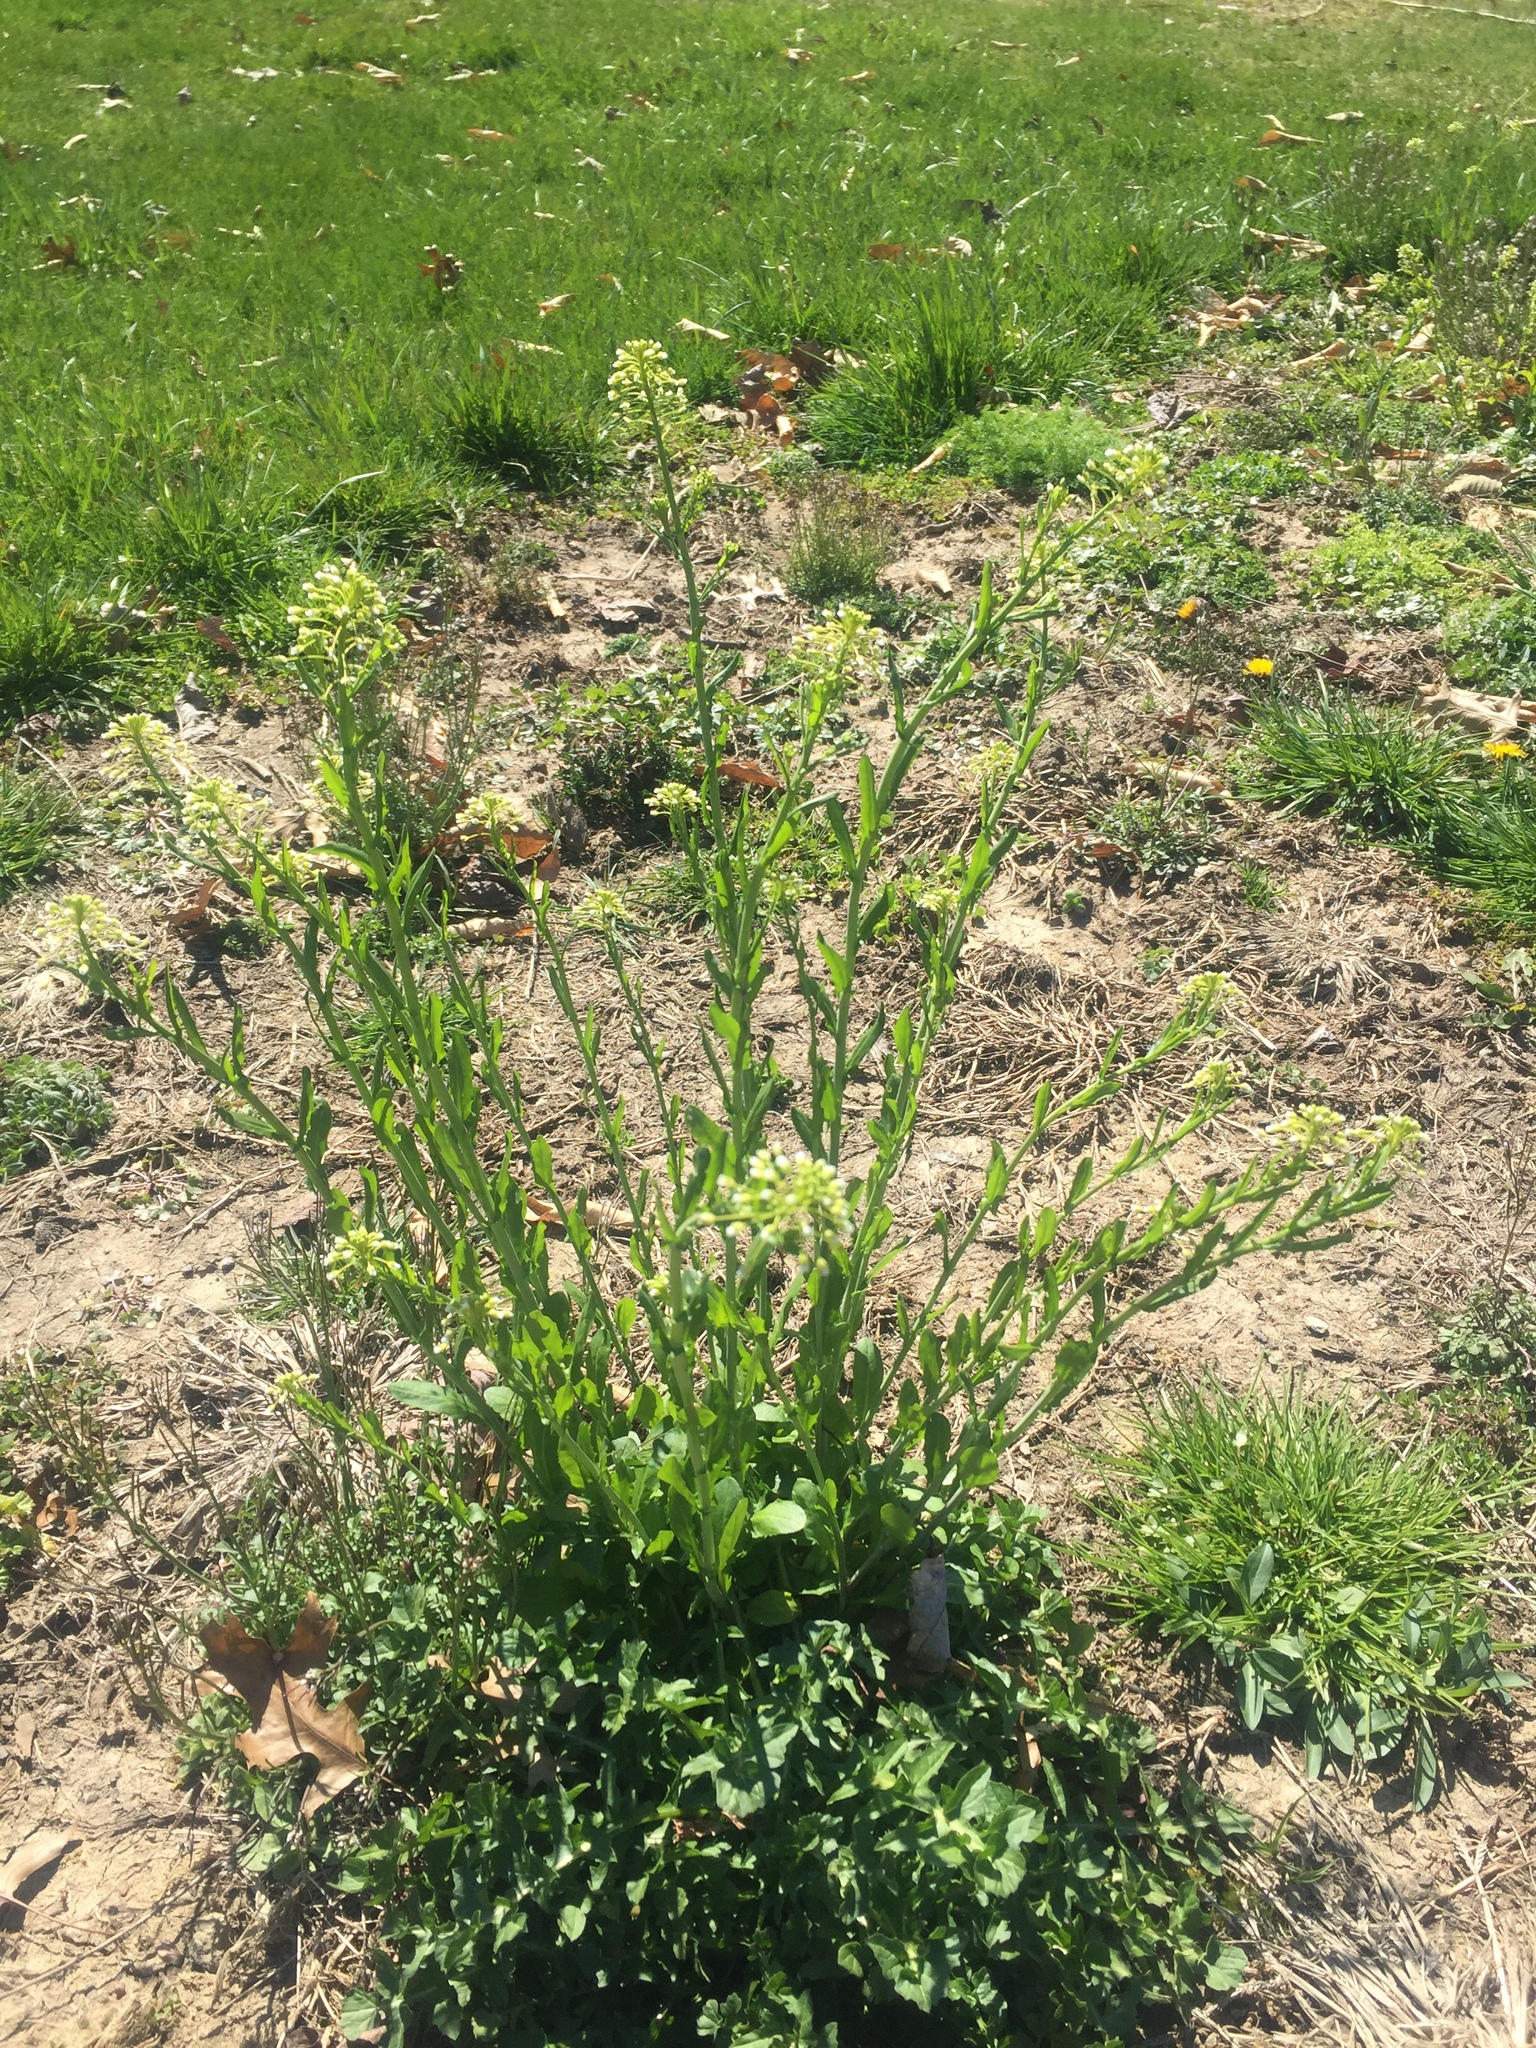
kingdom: Plantae
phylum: Tracheophyta
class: Magnoliopsida
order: Brassicales
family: Brassicaceae
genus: Mummenhoffia
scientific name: Mummenhoffia alliacea
